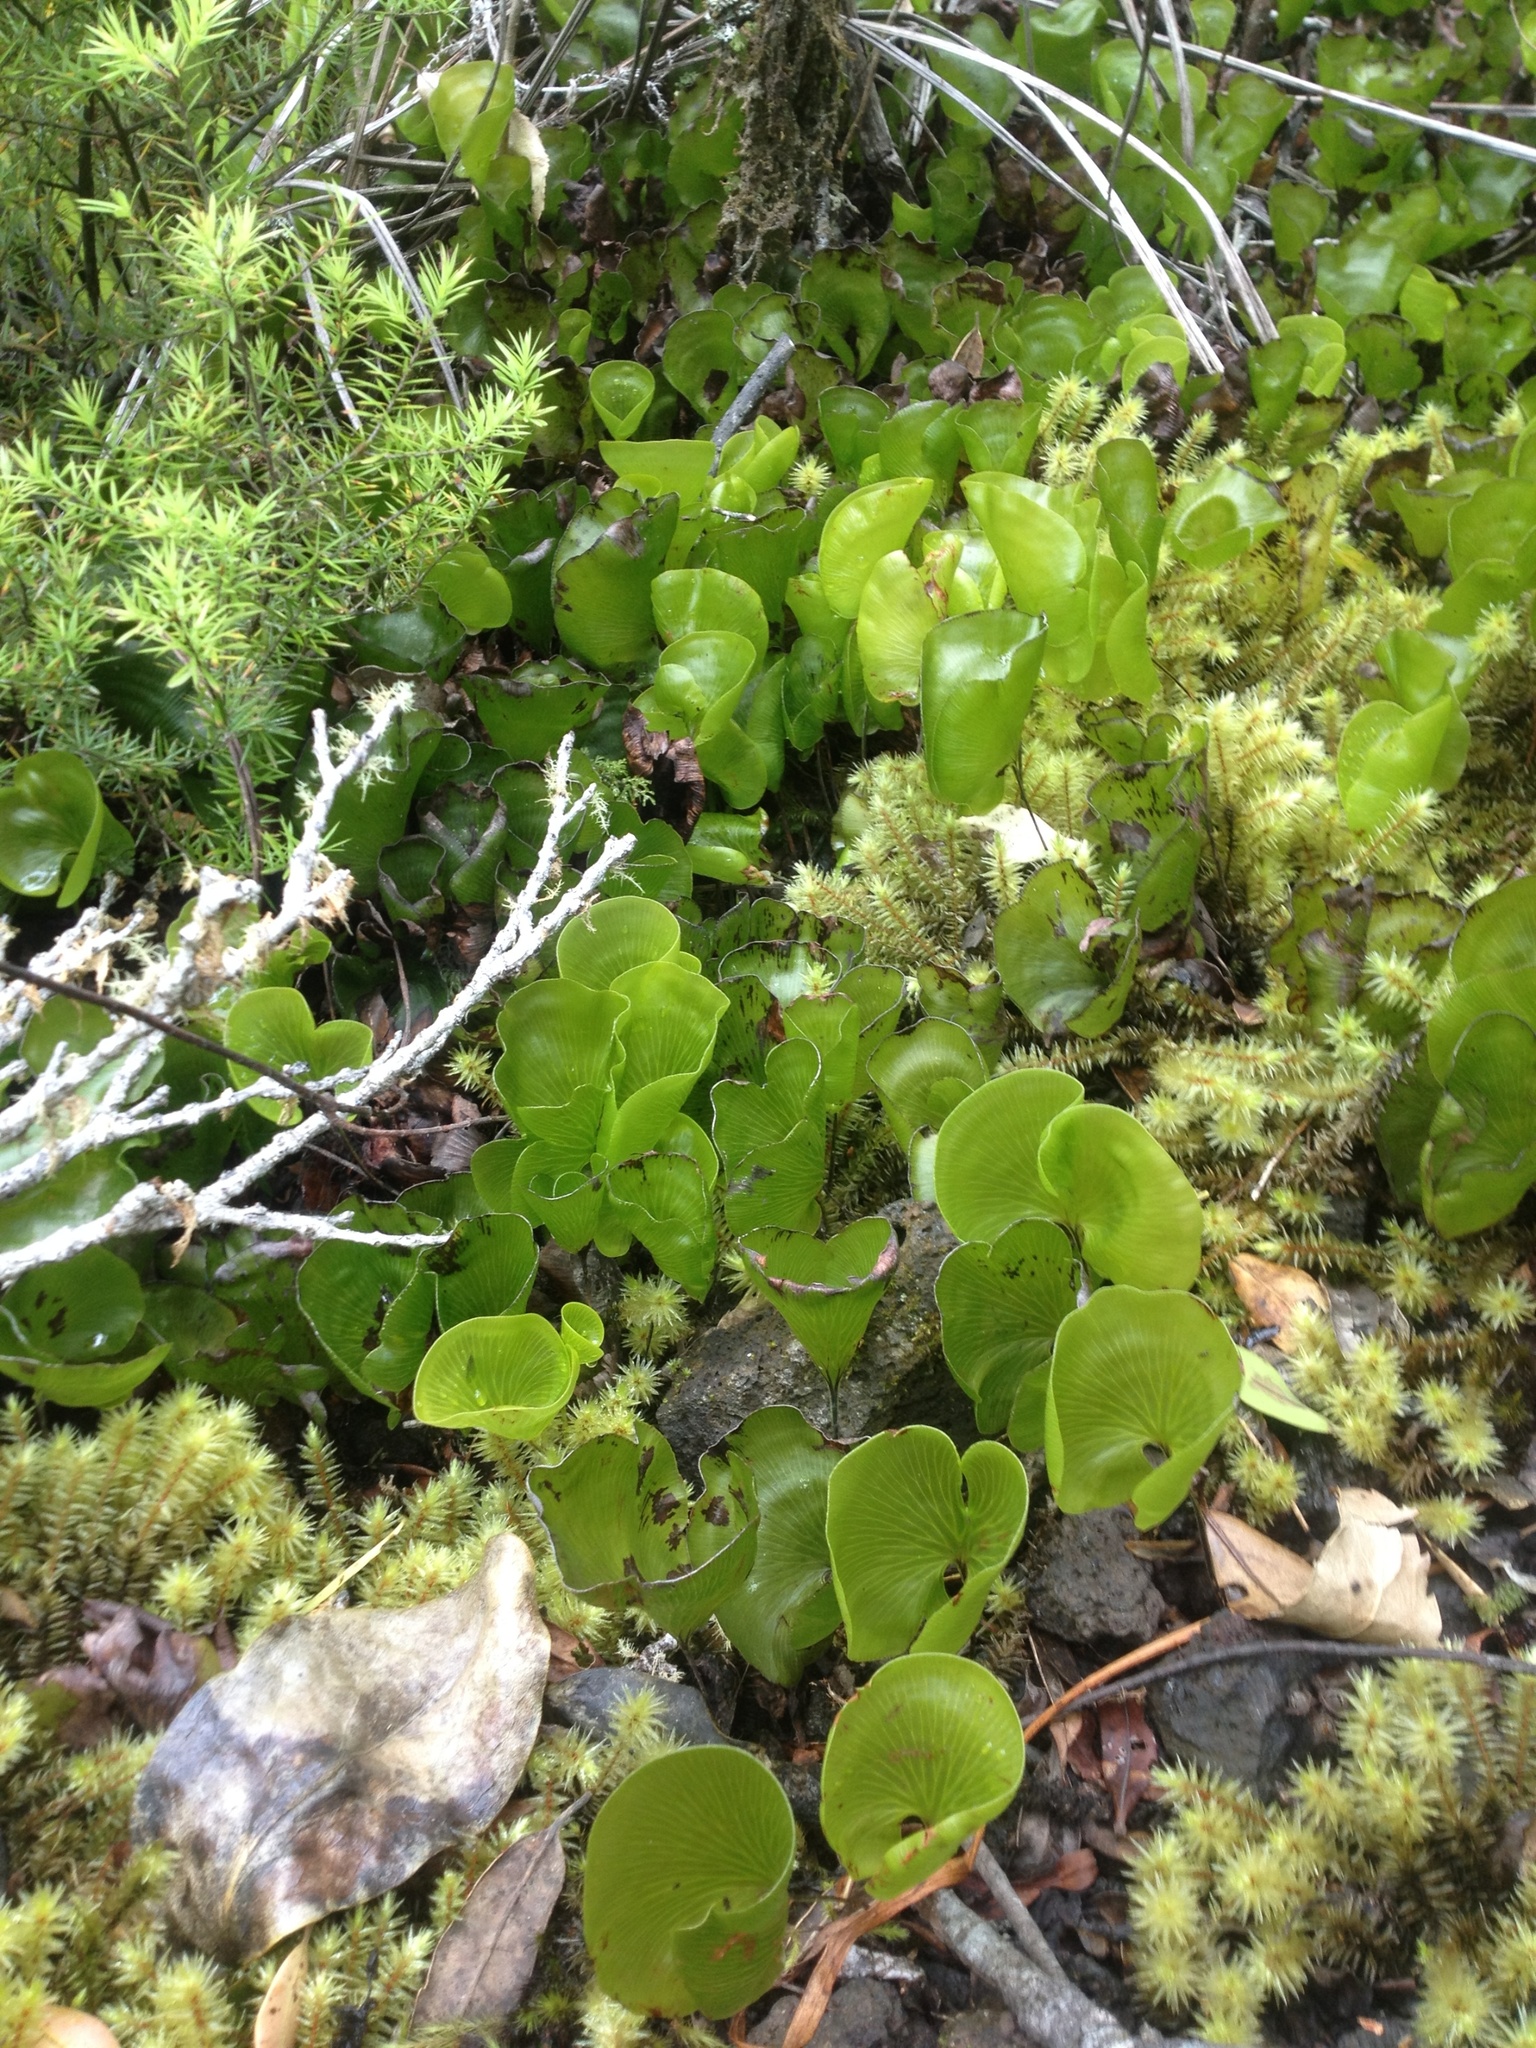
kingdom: Plantae
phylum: Tracheophyta
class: Polypodiopsida
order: Hymenophyllales
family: Hymenophyllaceae
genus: Hymenophyllum
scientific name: Hymenophyllum nephrophyllum
